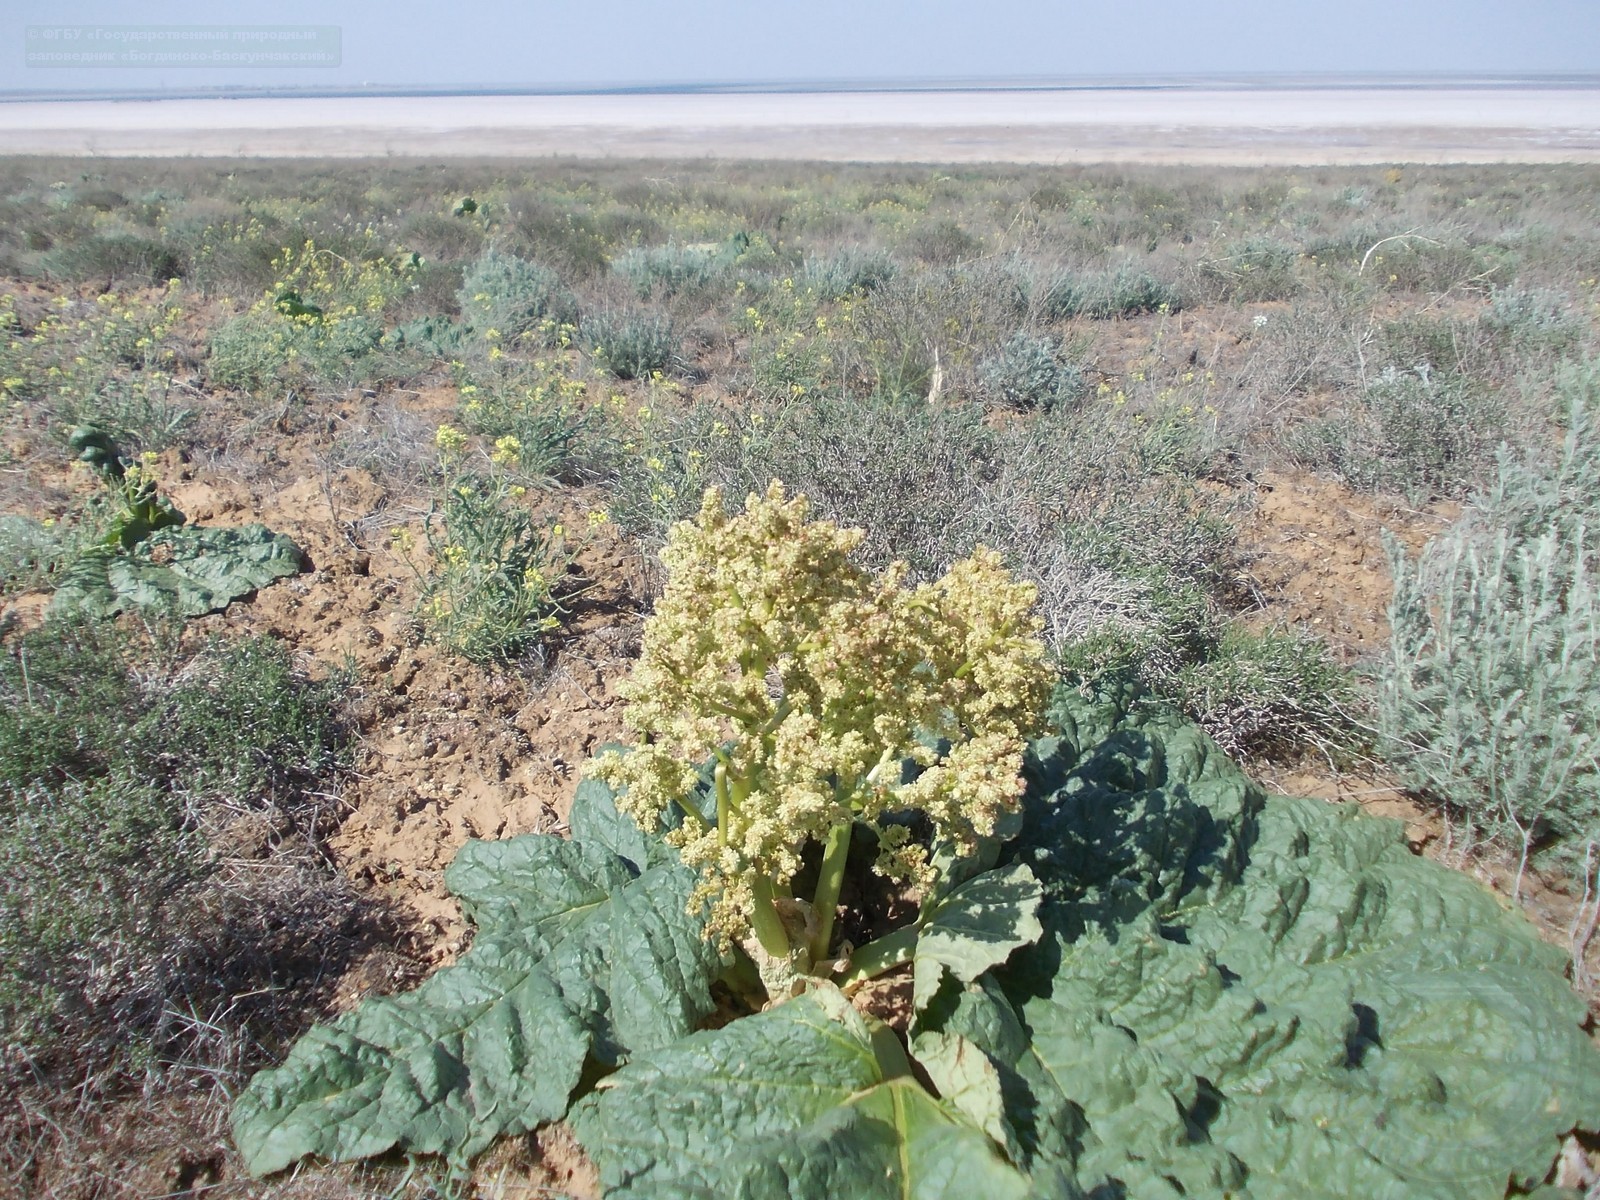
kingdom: Plantae
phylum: Tracheophyta
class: Magnoliopsida
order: Caryophyllales
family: Polygonaceae
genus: Rheum
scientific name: Rheum tataricum
